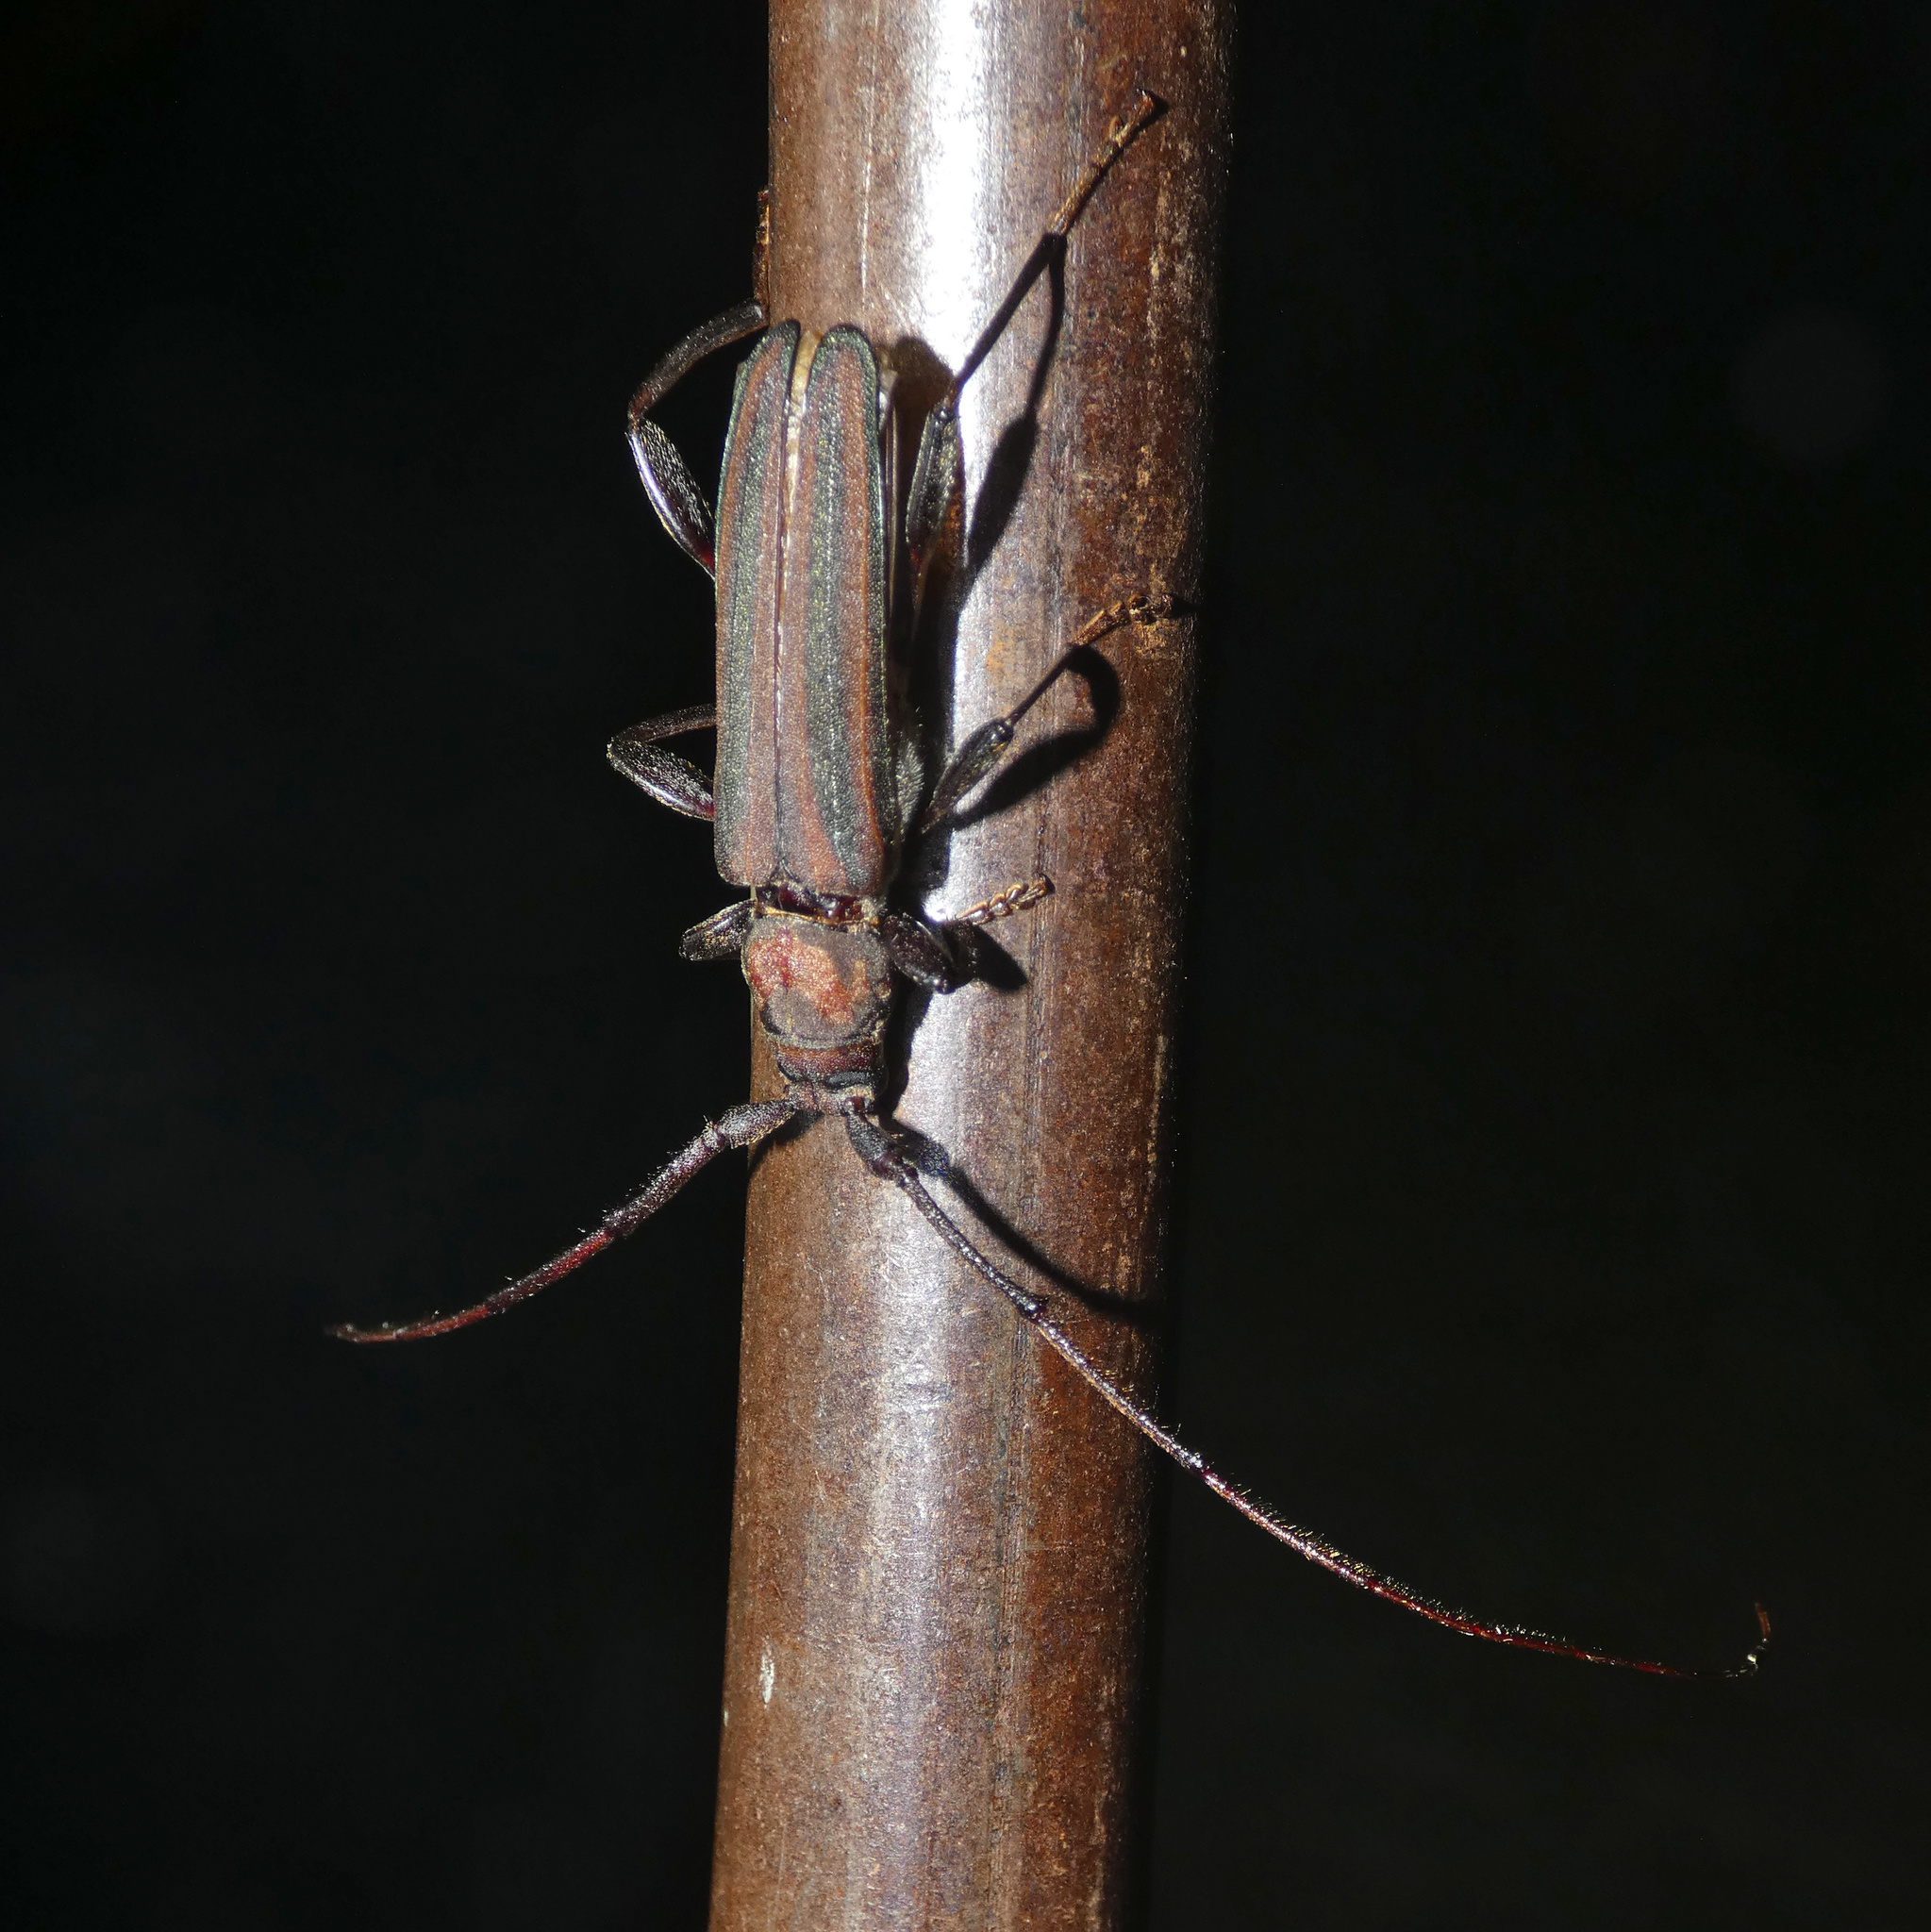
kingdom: Animalia
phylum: Arthropoda
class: Insecta
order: Coleoptera
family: Cerambycidae
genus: Xystrocera
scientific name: Xystrocera dispar
